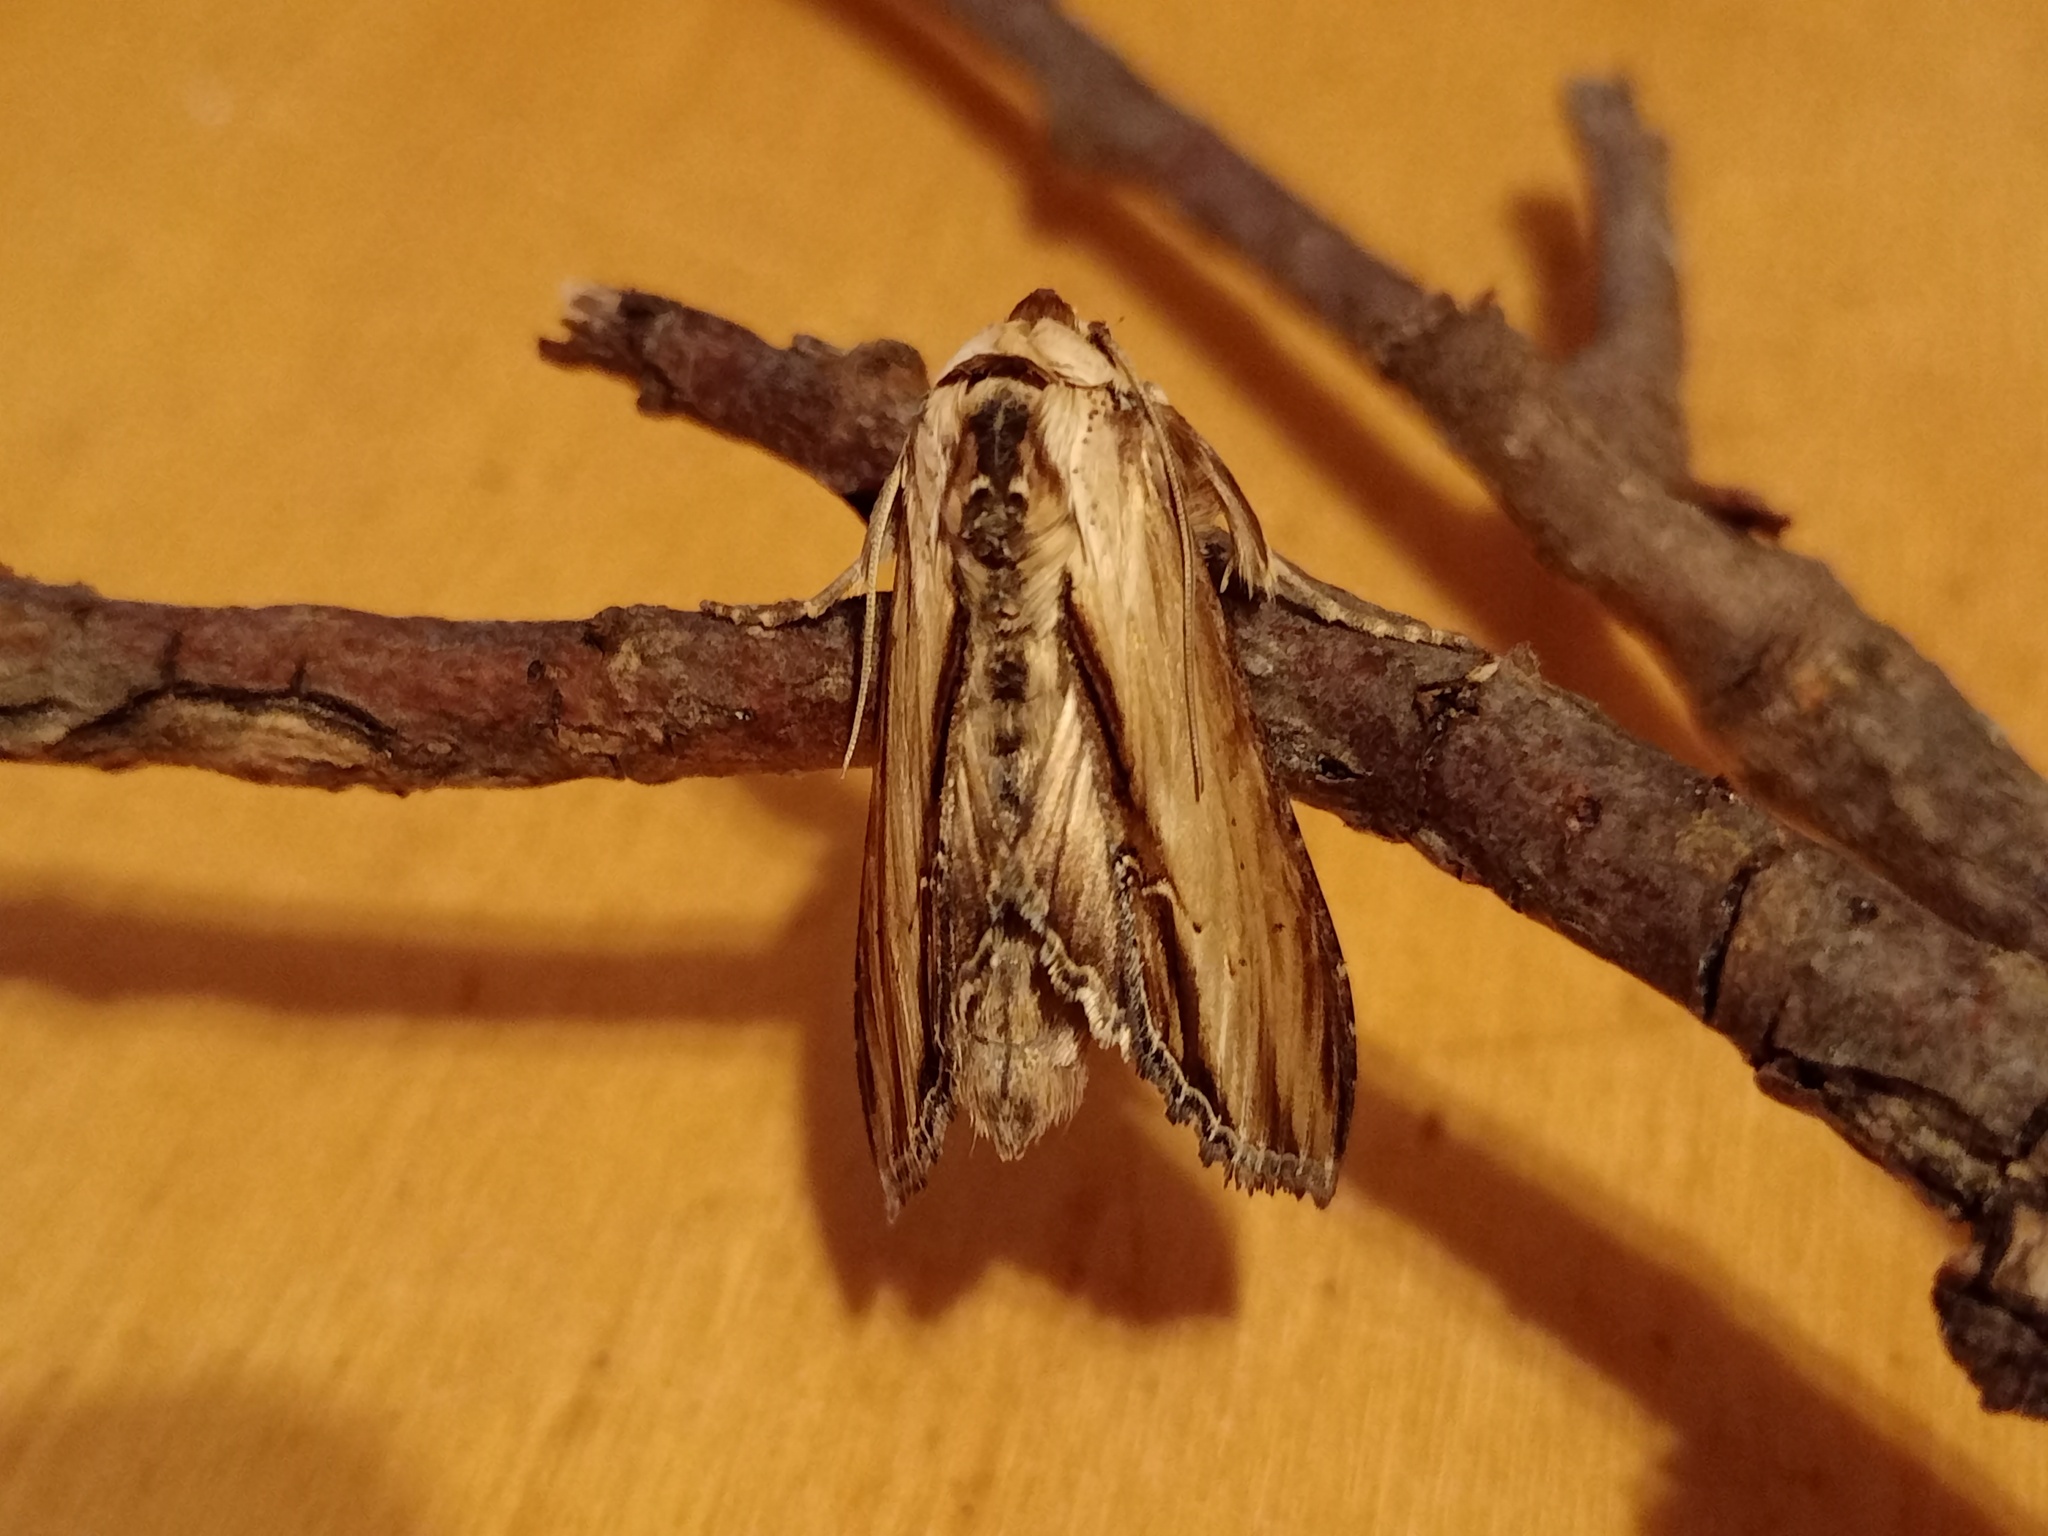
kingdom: Animalia
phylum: Arthropoda
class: Insecta
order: Lepidoptera
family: Noctuidae
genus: Shargacucullia
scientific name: Shargacucullia scrophulariae
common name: Water betony
